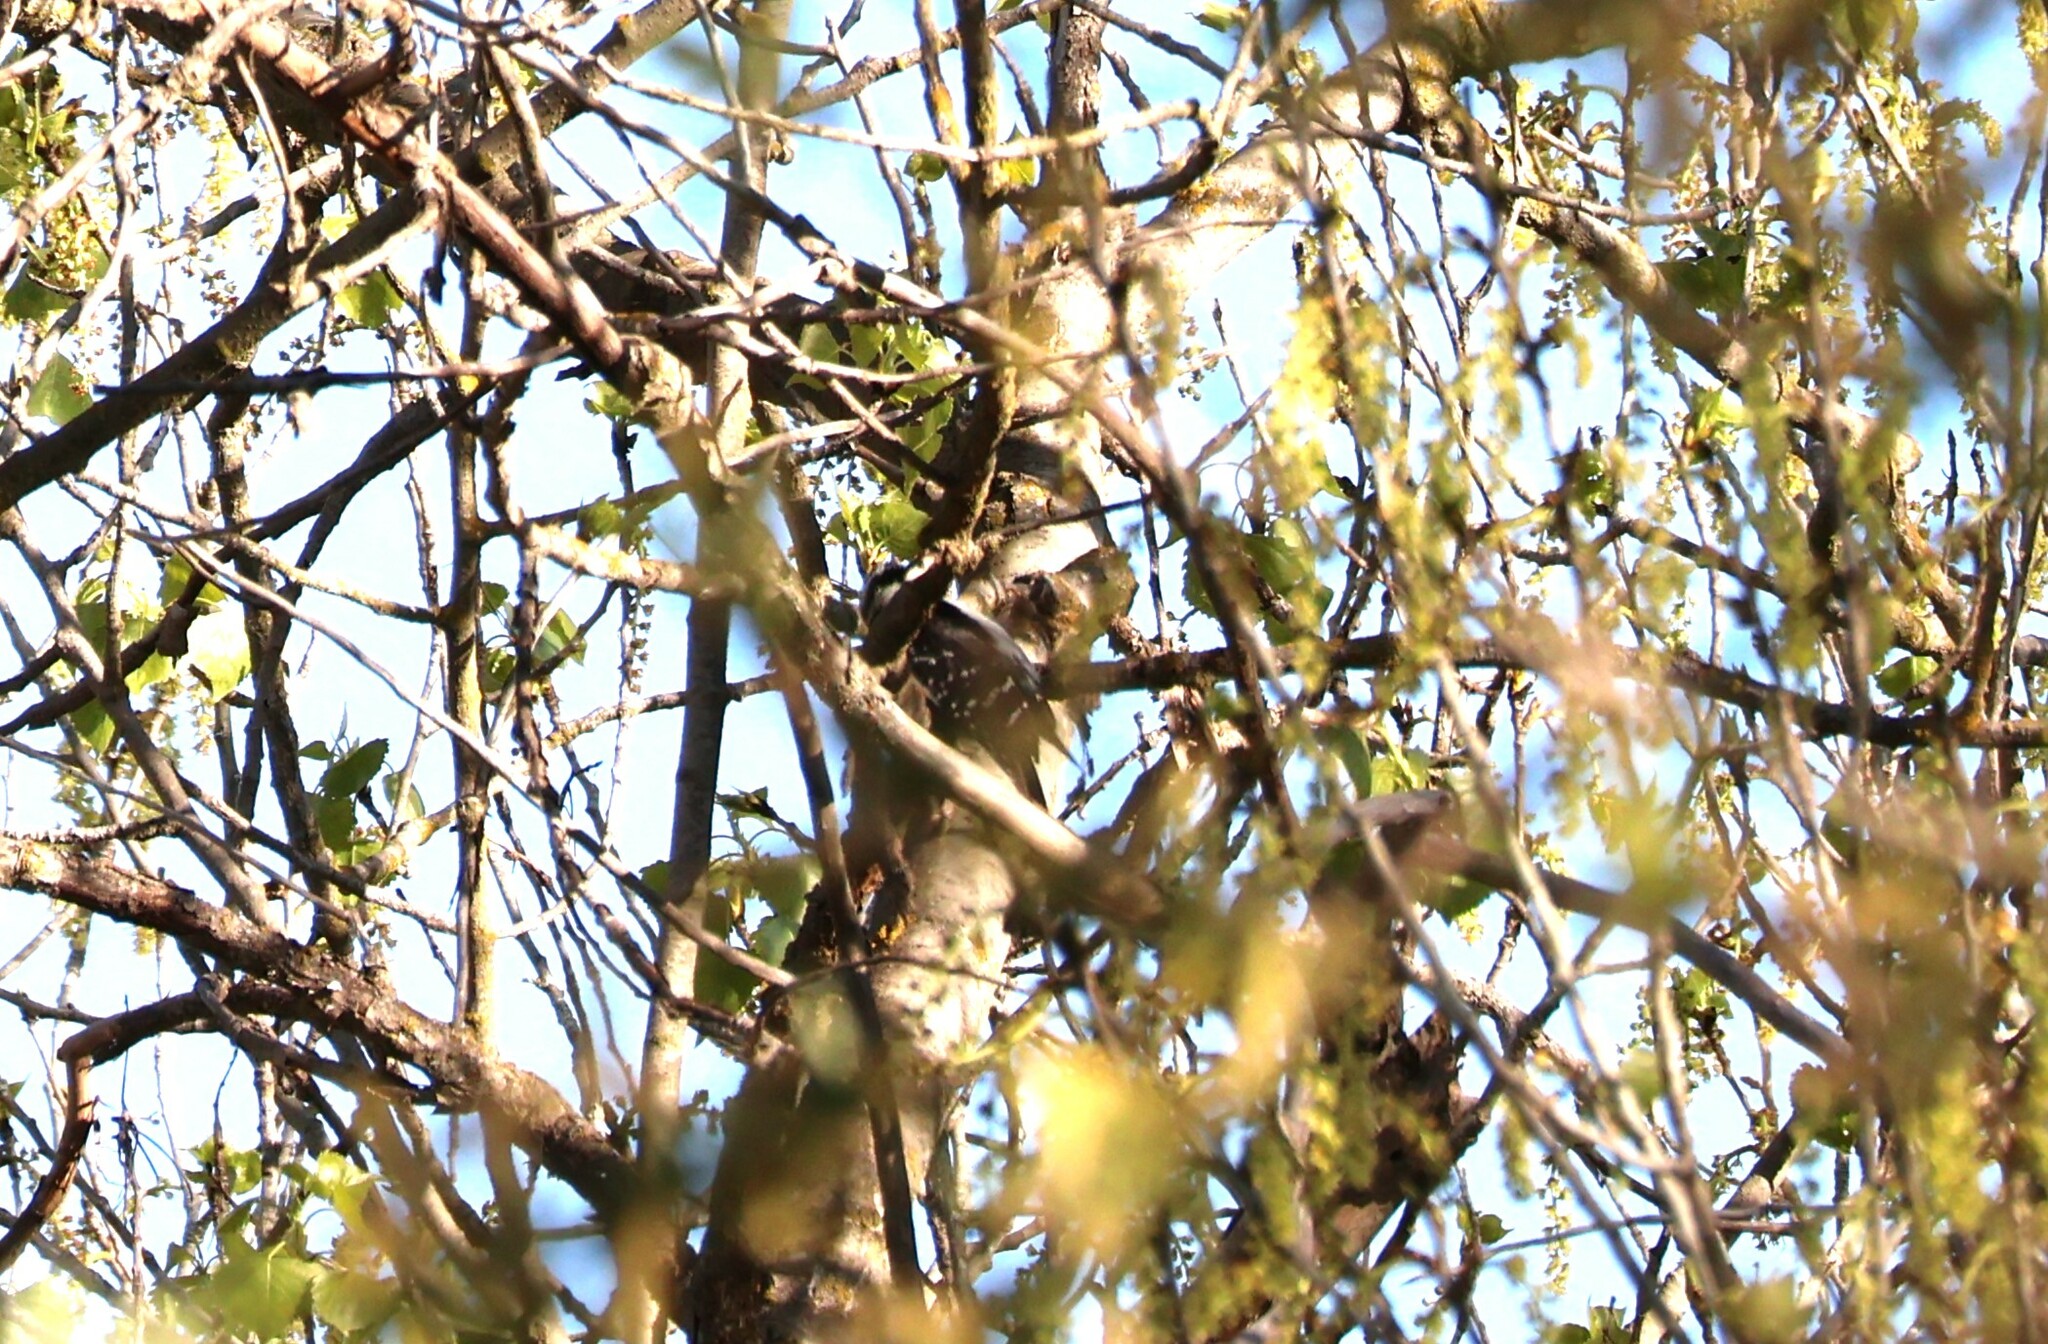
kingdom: Animalia
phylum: Chordata
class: Aves
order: Piciformes
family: Picidae
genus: Dryobates
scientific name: Dryobates pubescens
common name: Downy woodpecker
